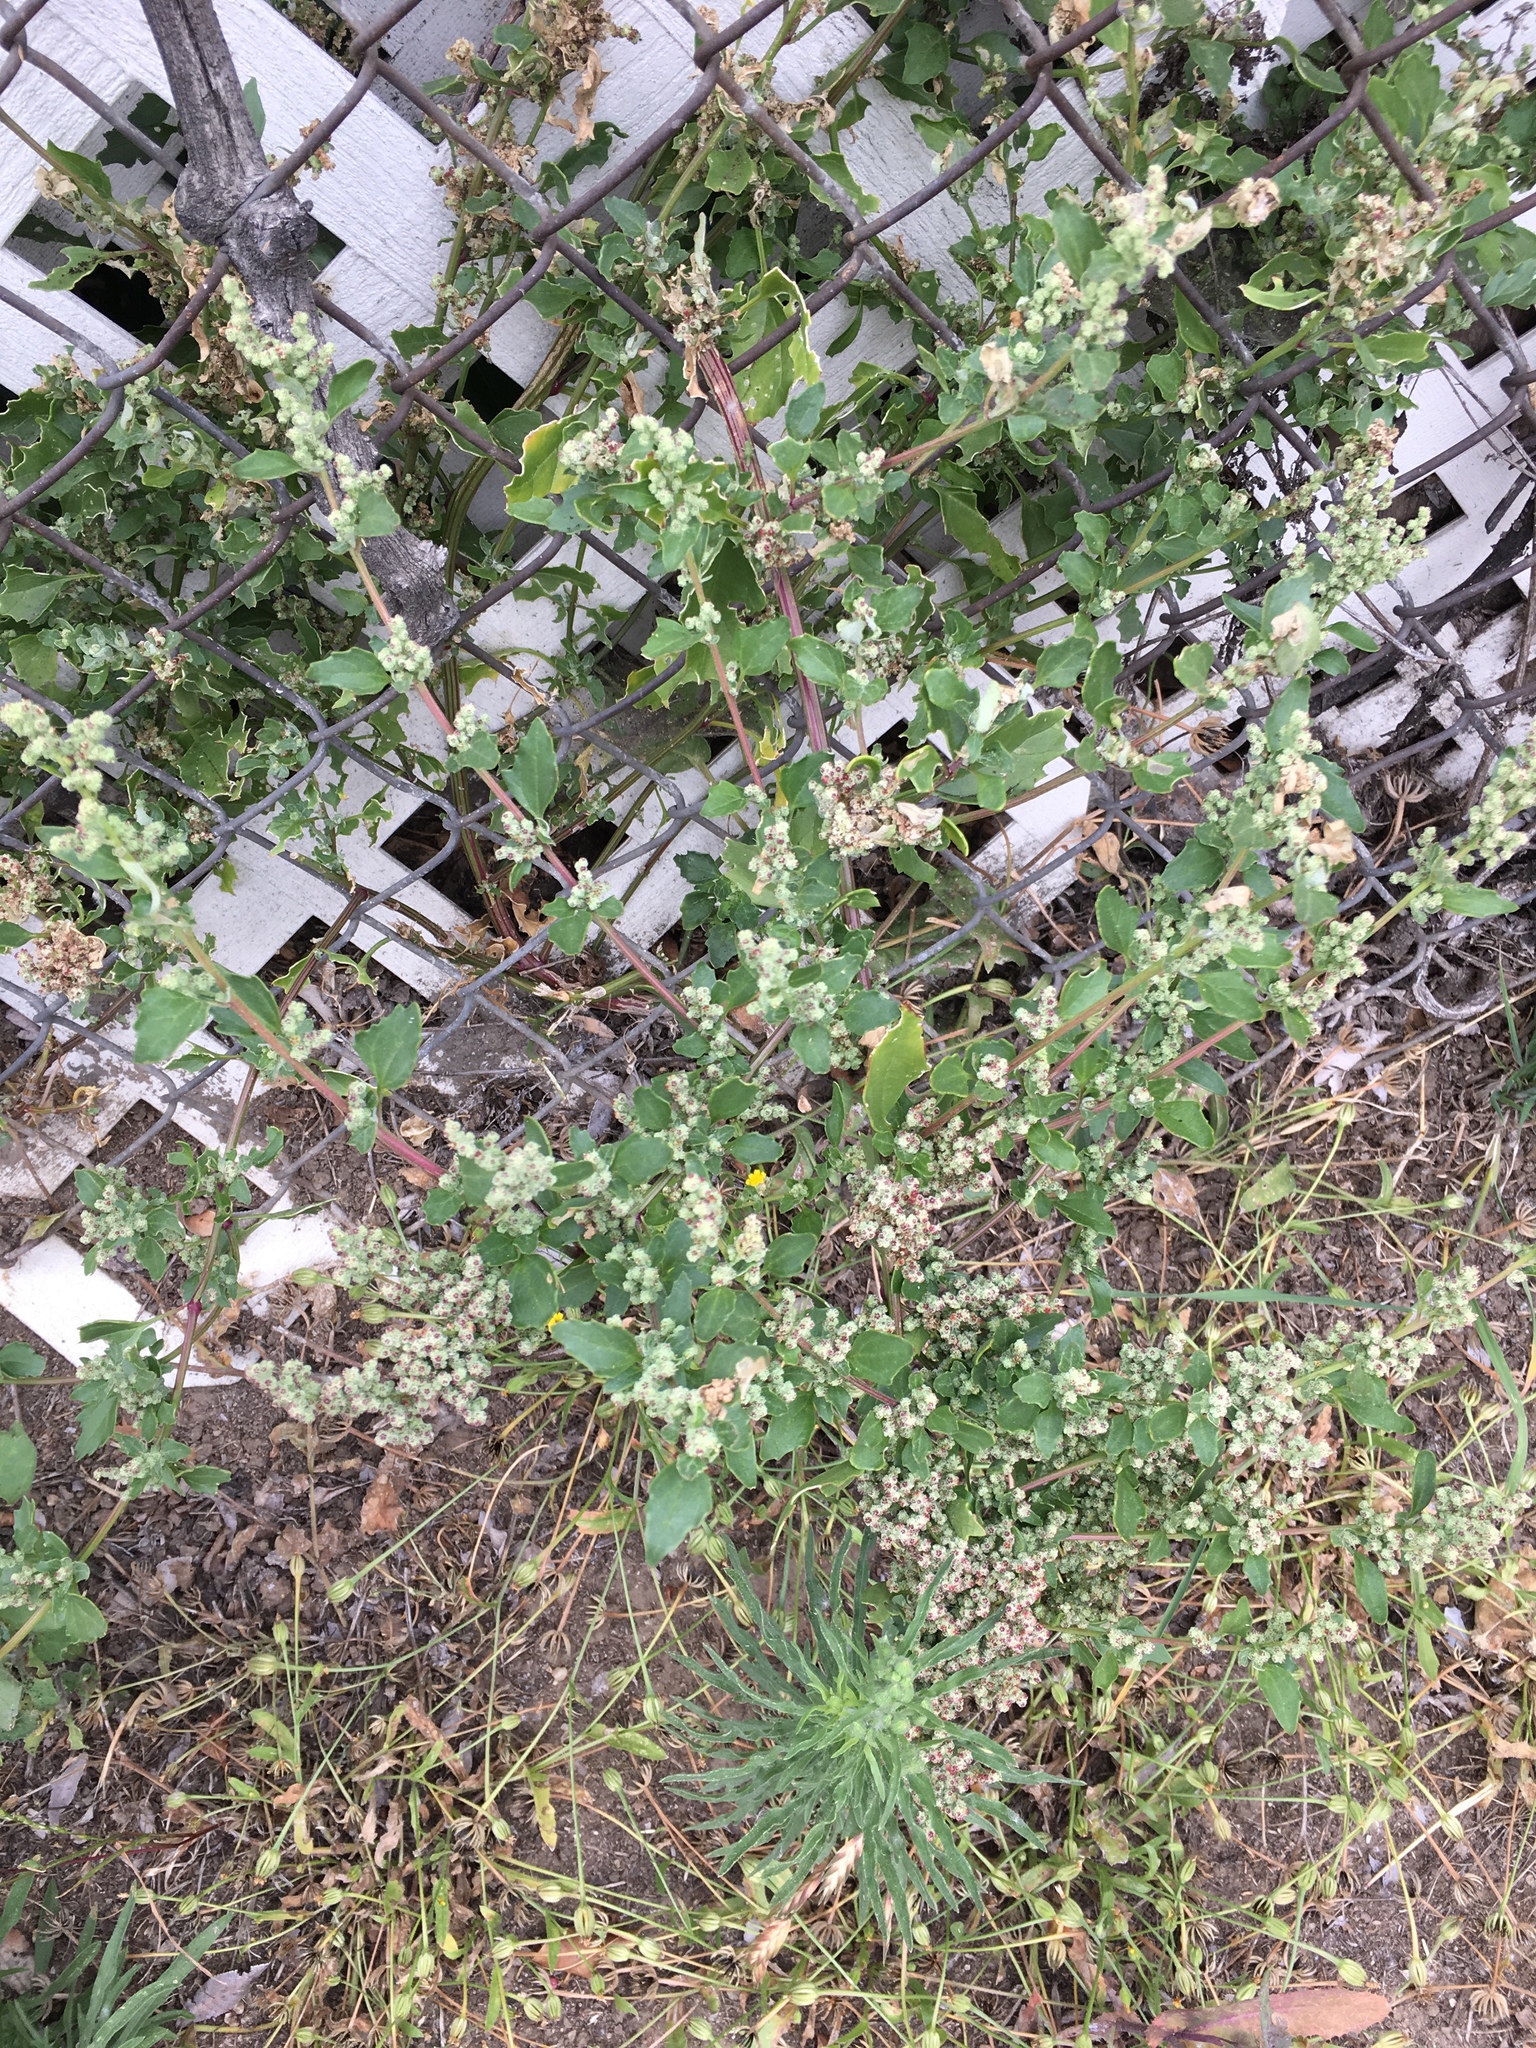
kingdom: Plantae
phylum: Tracheophyta
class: Magnoliopsida
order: Caryophyllales
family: Amaranthaceae
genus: Chenopodiastrum
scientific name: Chenopodiastrum murale
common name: Sowbane
